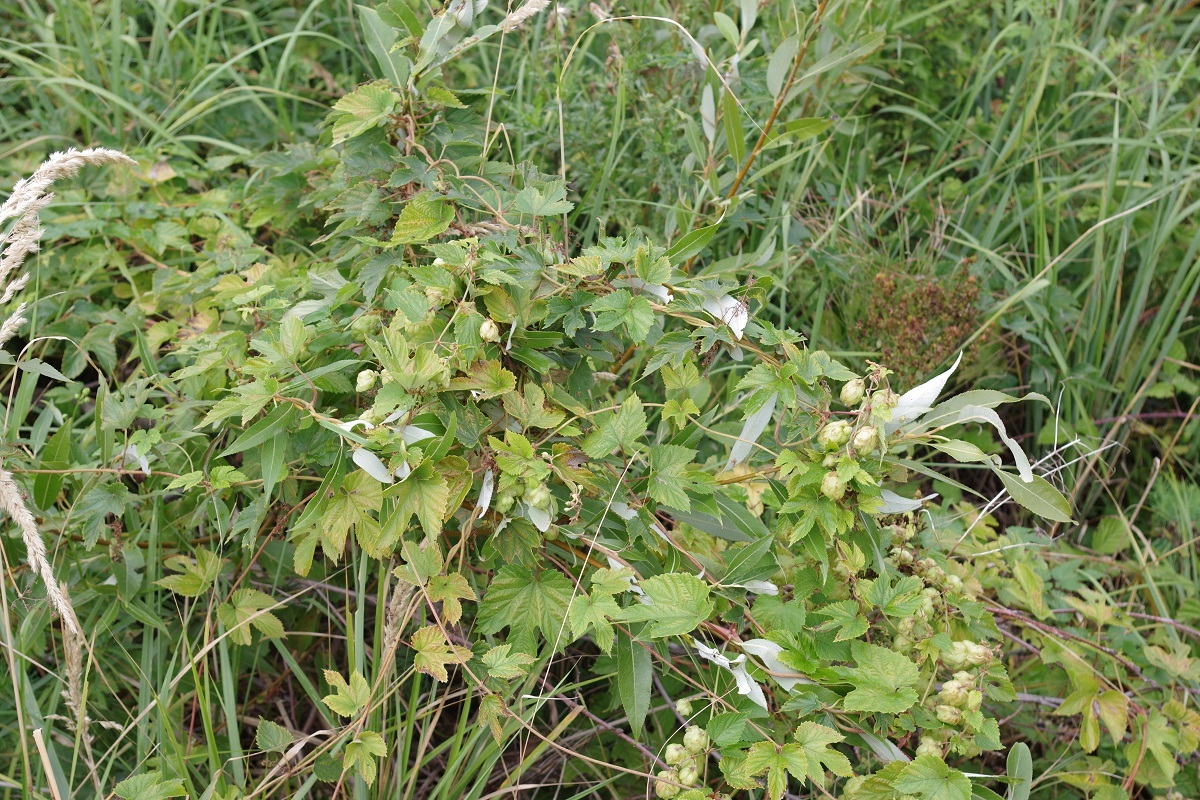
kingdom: Plantae
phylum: Tracheophyta
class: Magnoliopsida
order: Rosales
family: Cannabaceae
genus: Humulus
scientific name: Humulus lupulus
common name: Hop
